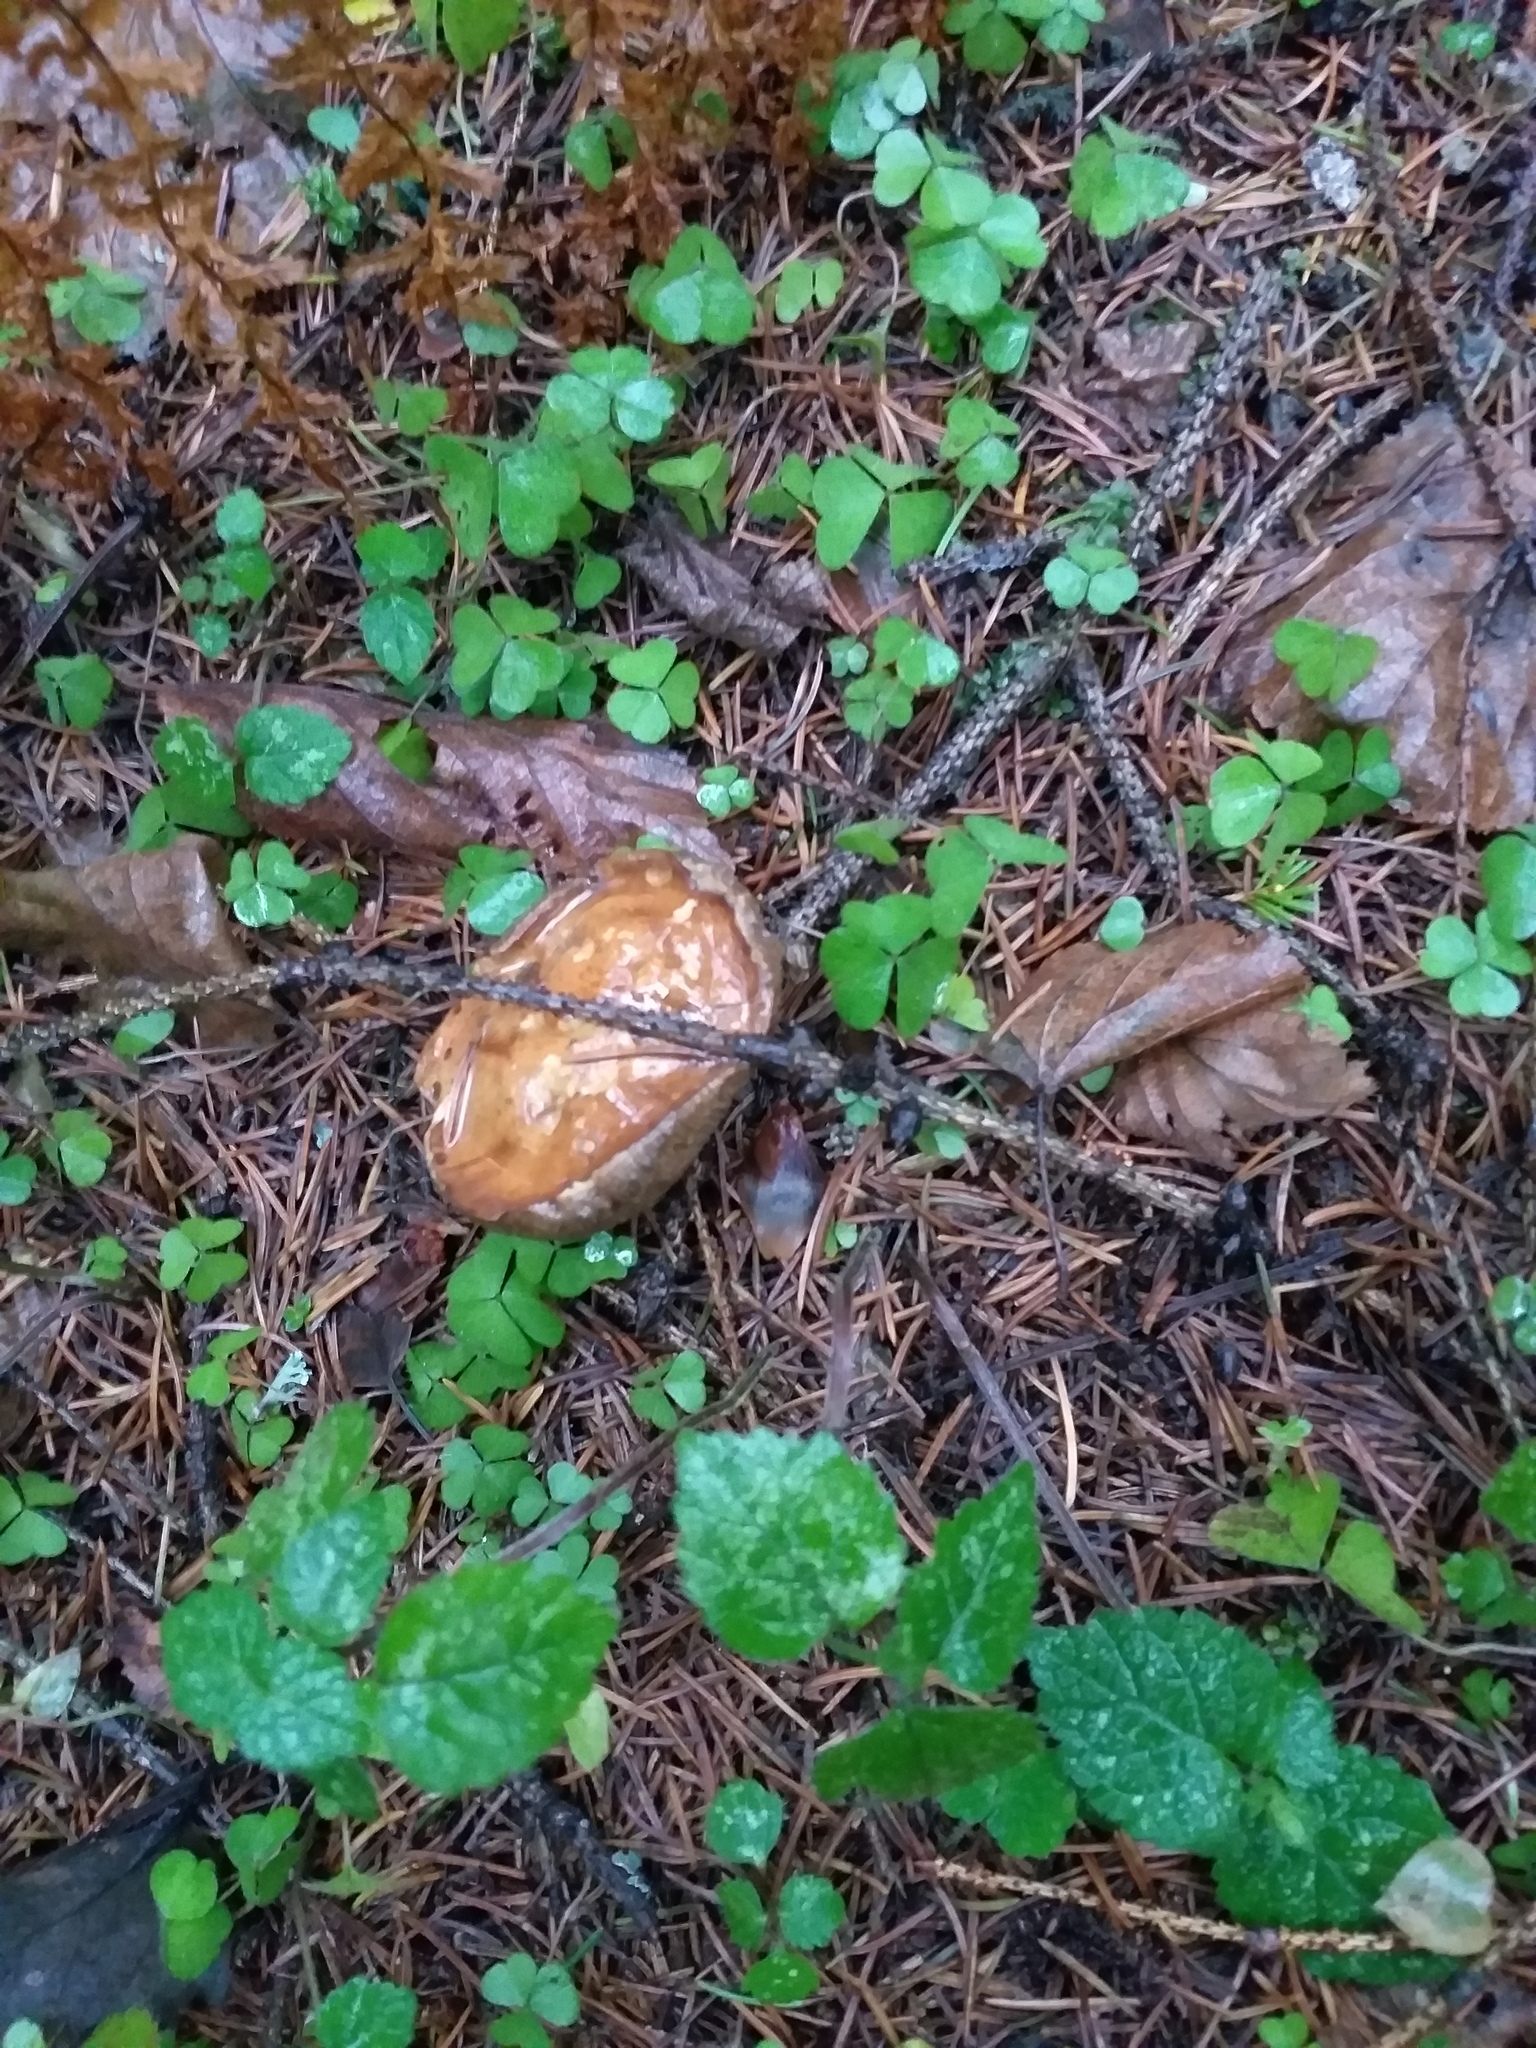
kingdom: Fungi
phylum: Basidiomycota
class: Agaricomycetes
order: Boletales
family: Boletaceae
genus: Imleria
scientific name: Imleria badia
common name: Bay bolete
